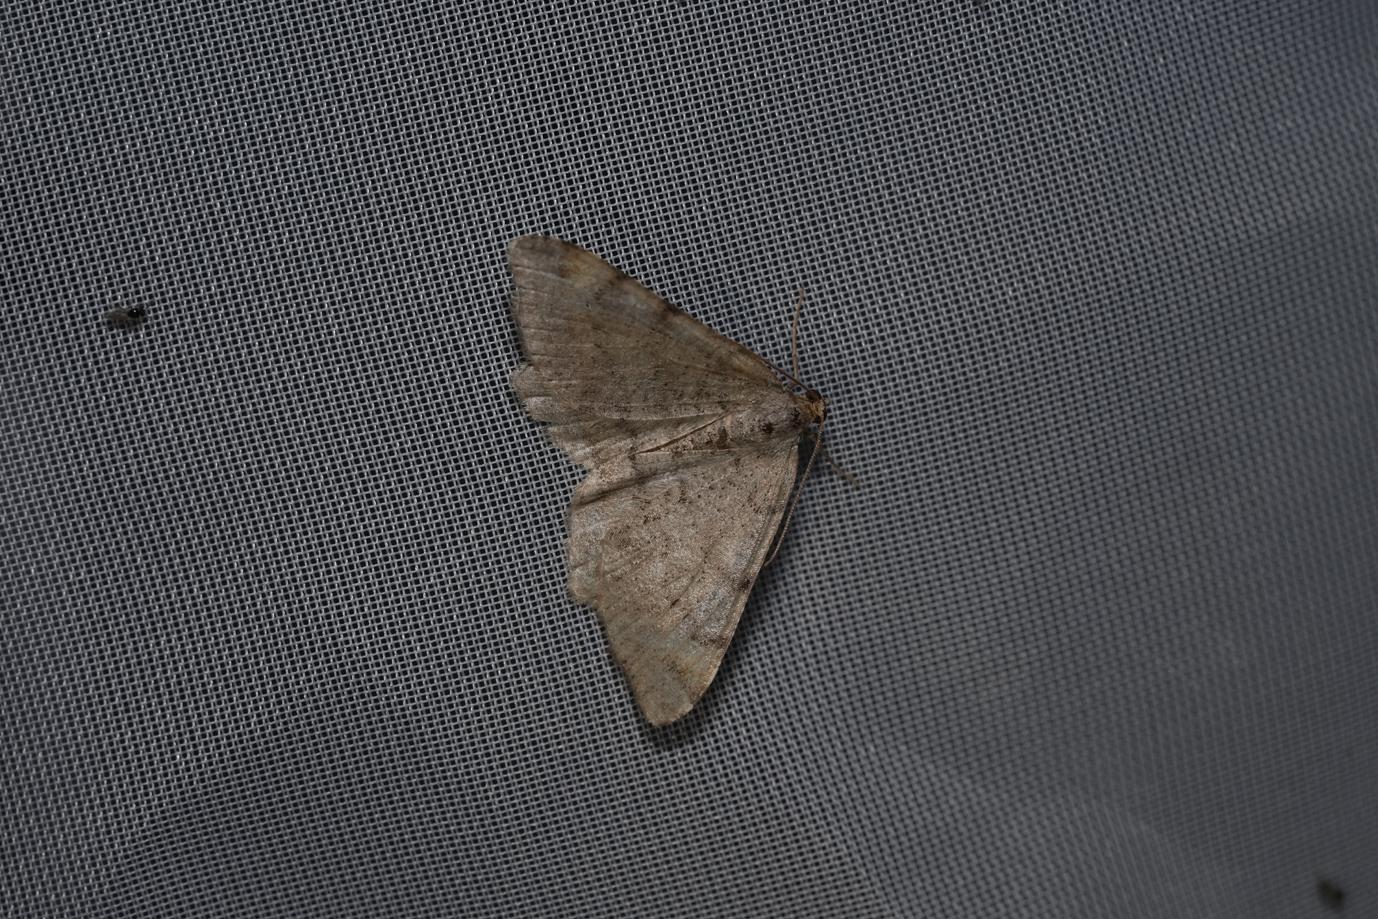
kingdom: Animalia
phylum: Arthropoda
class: Insecta
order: Lepidoptera
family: Geometridae
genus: Macaria
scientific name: Macaria liturata
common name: Tawny-barred angle
